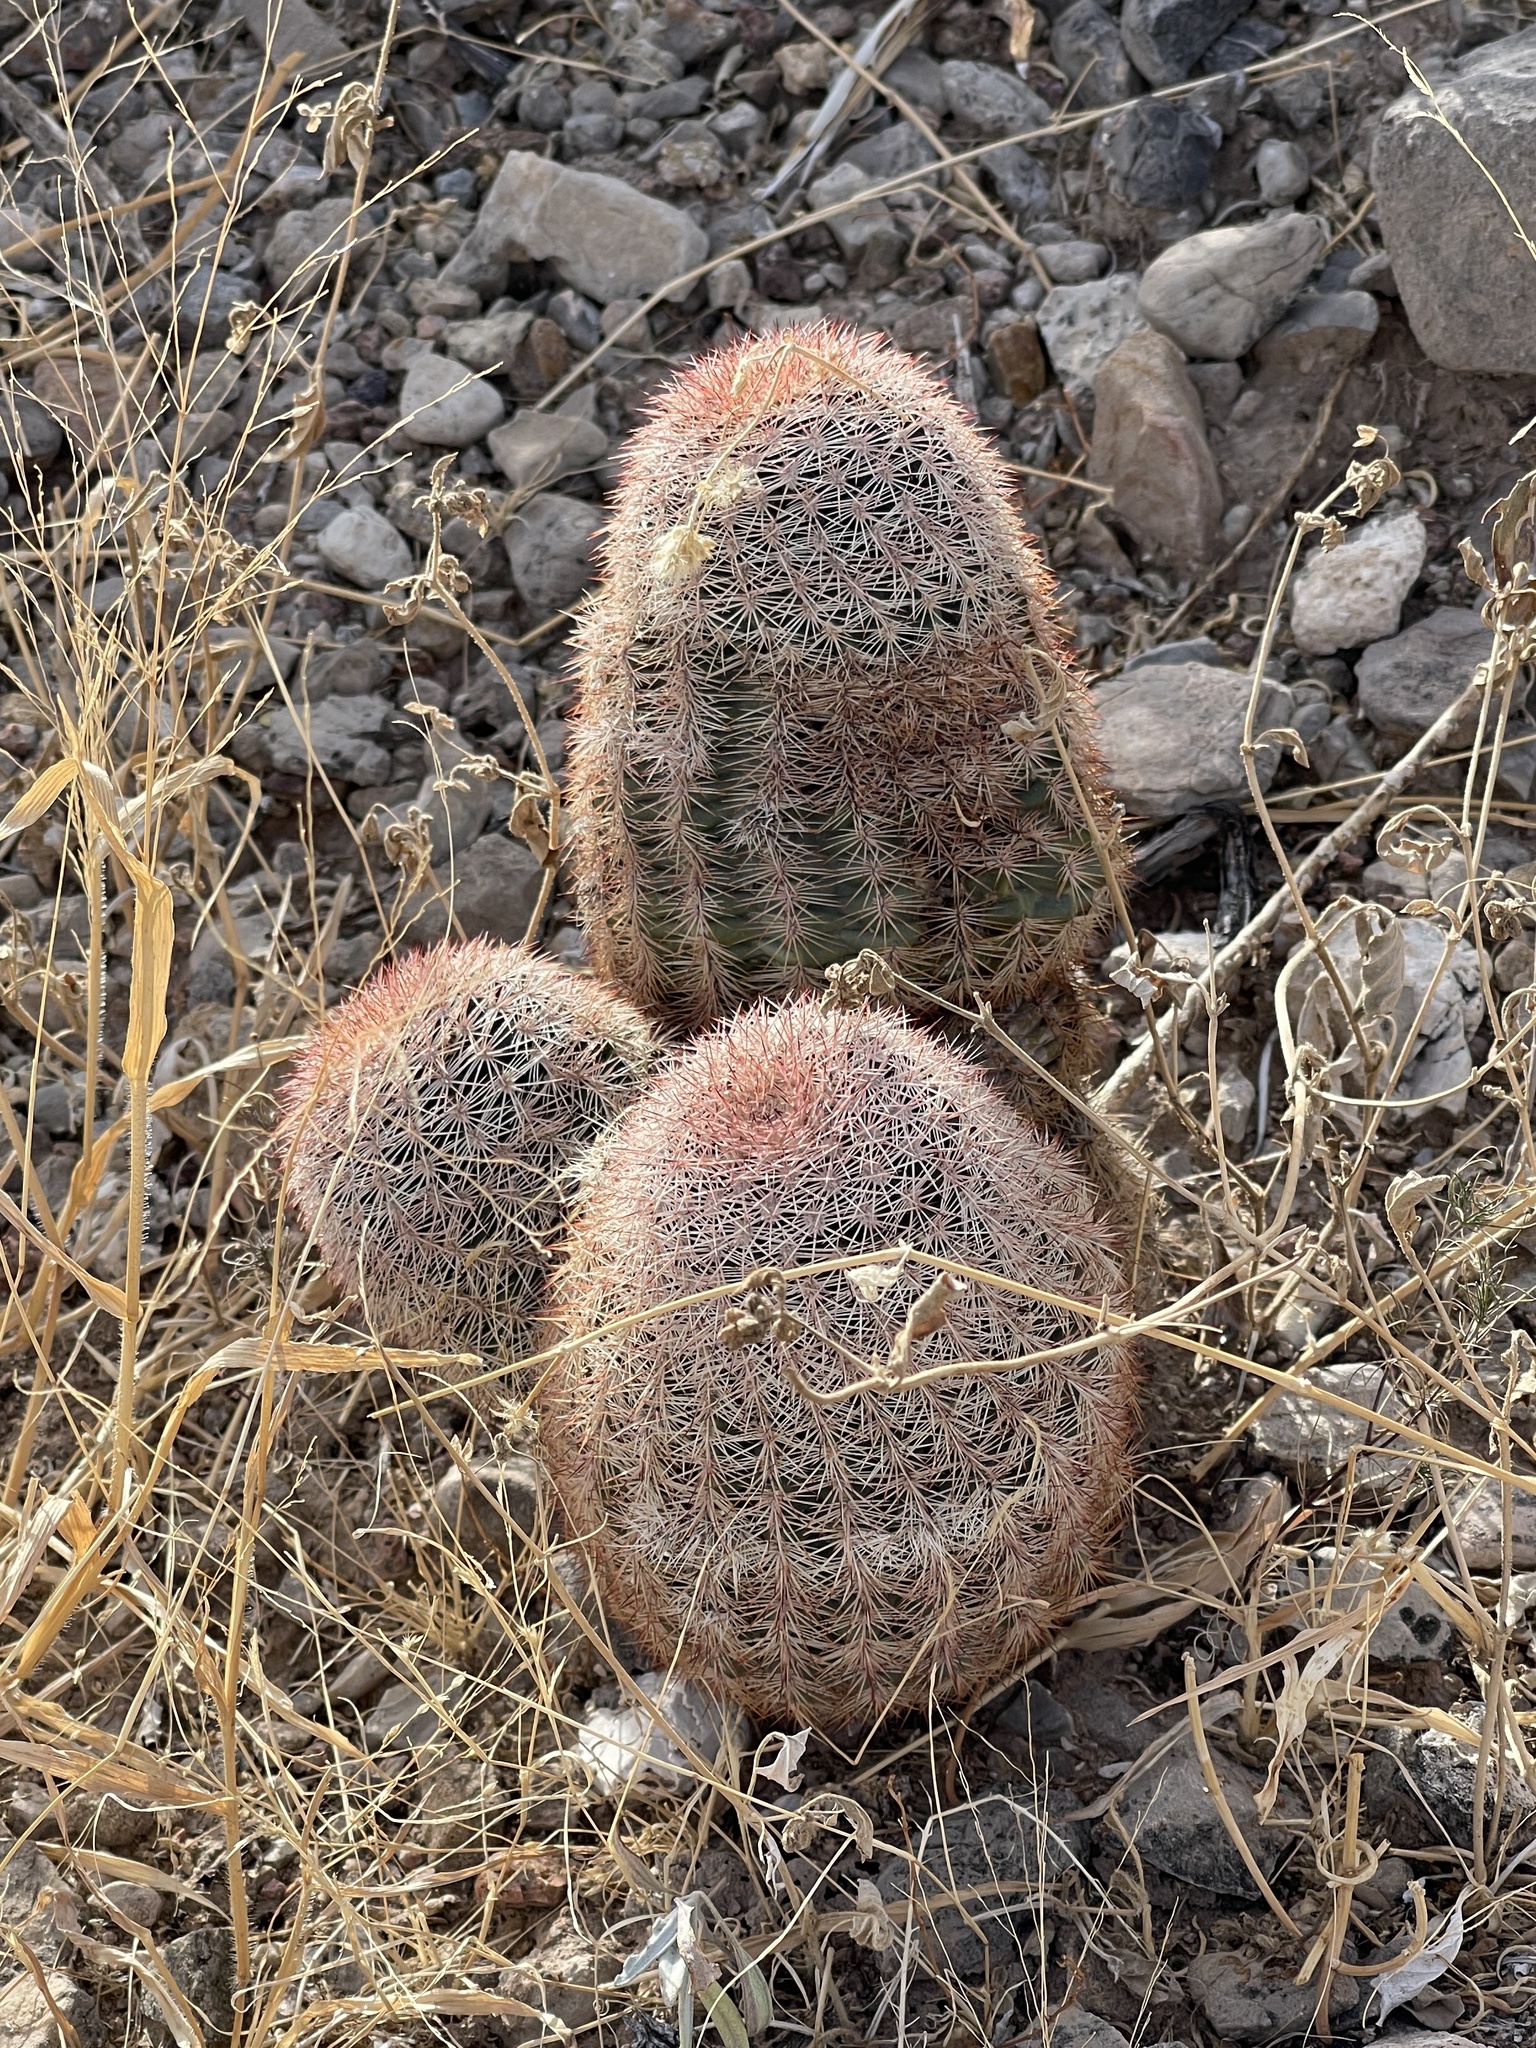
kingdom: Plantae
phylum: Tracheophyta
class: Magnoliopsida
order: Caryophyllales
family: Cactaceae
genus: Echinocereus
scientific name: Echinocereus dasyacanthus
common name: Spiny hedgehog cactus
